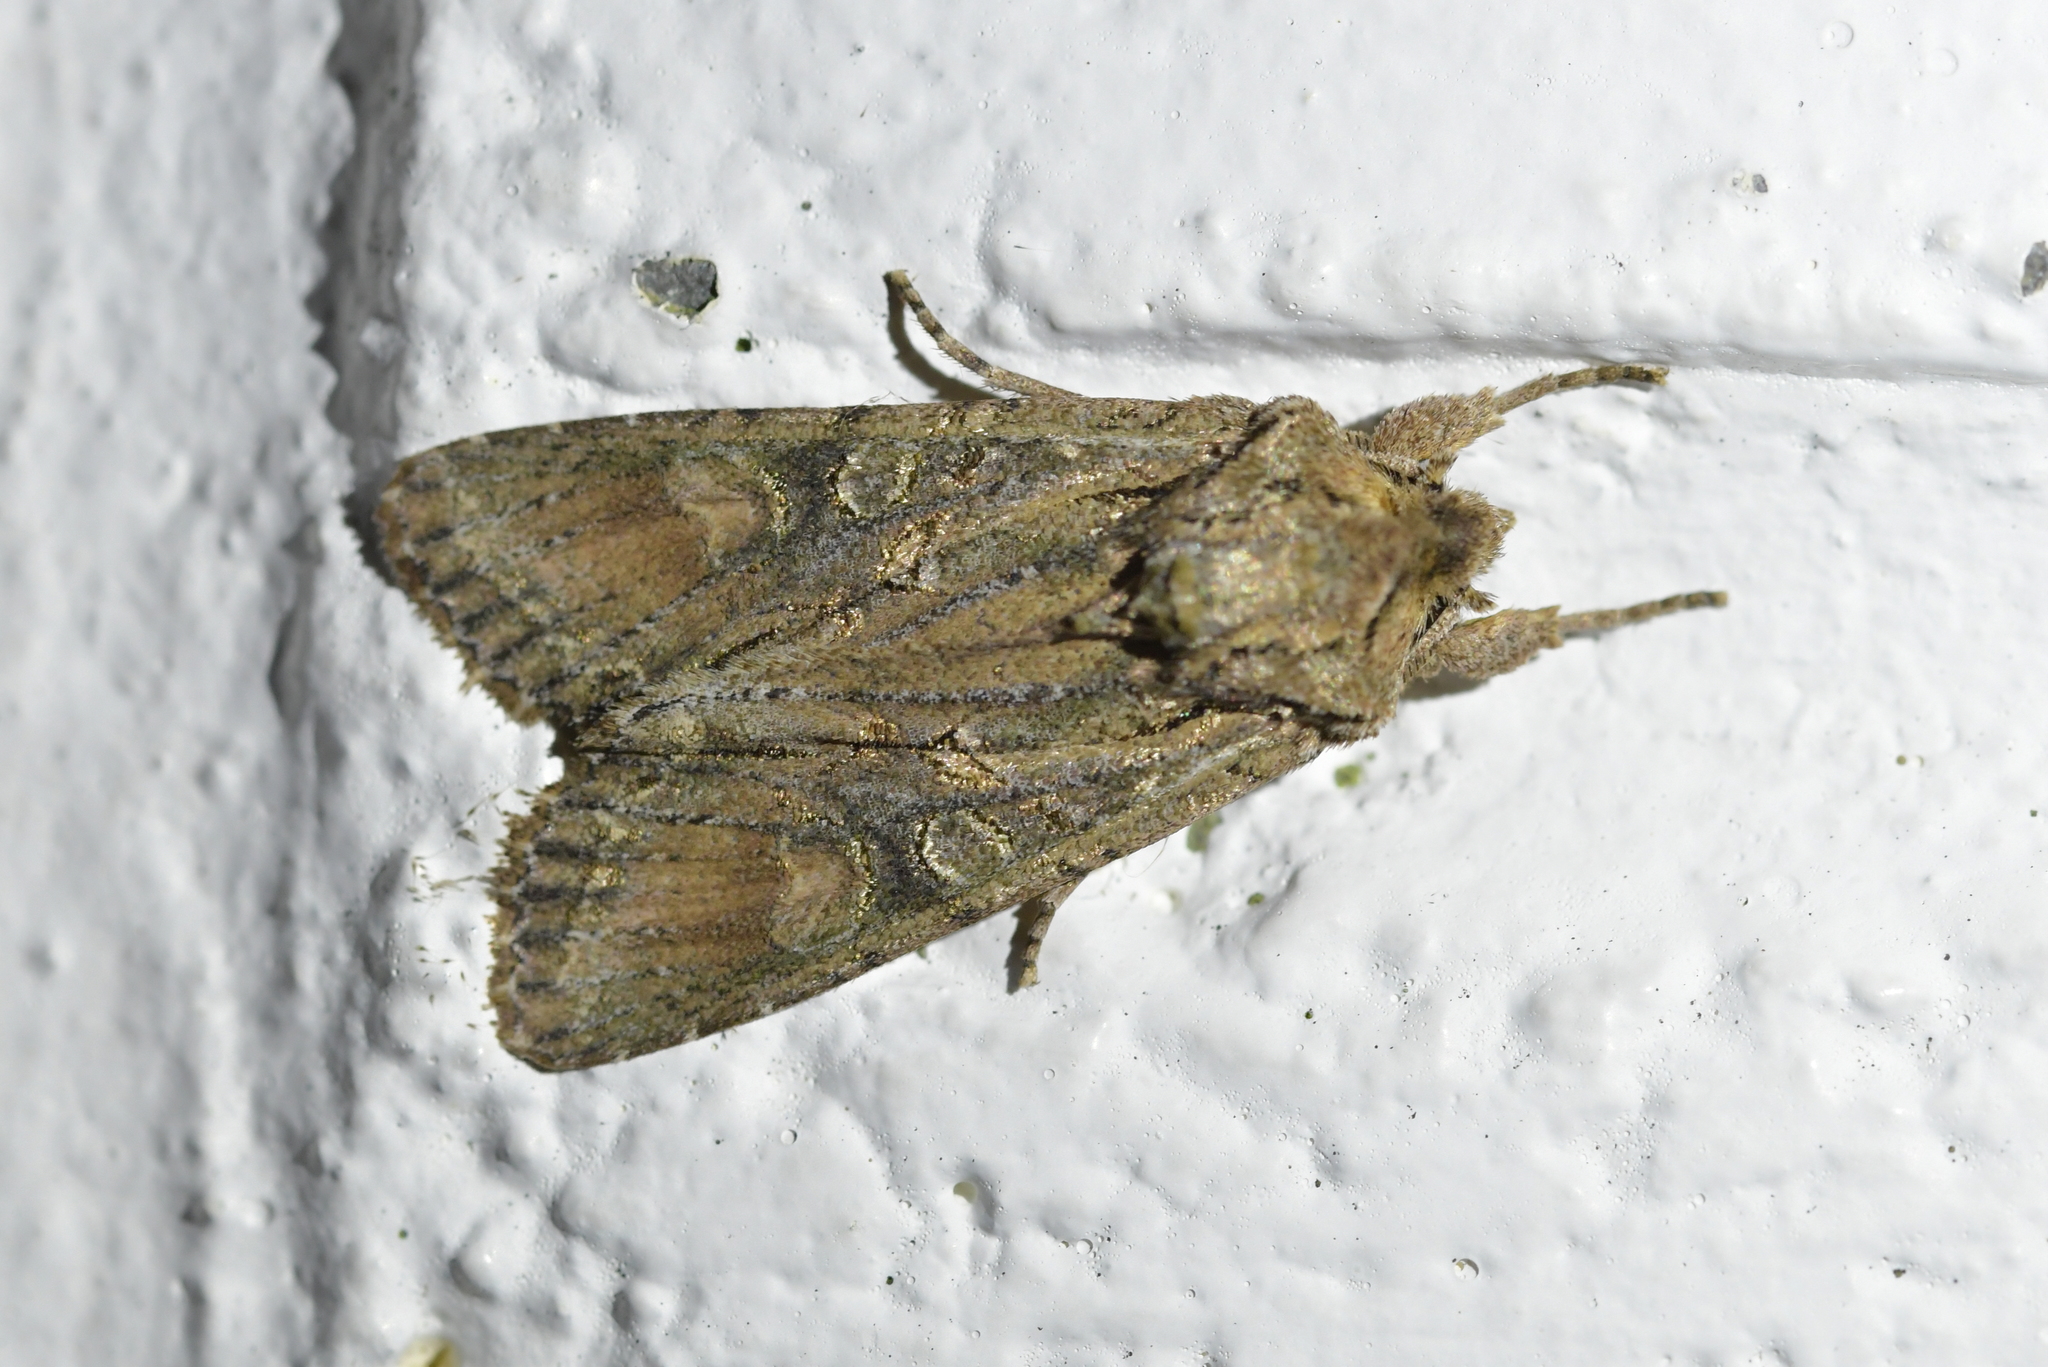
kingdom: Animalia
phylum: Arthropoda
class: Insecta
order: Lepidoptera
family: Noctuidae
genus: Ichneutica
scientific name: Ichneutica mutans
